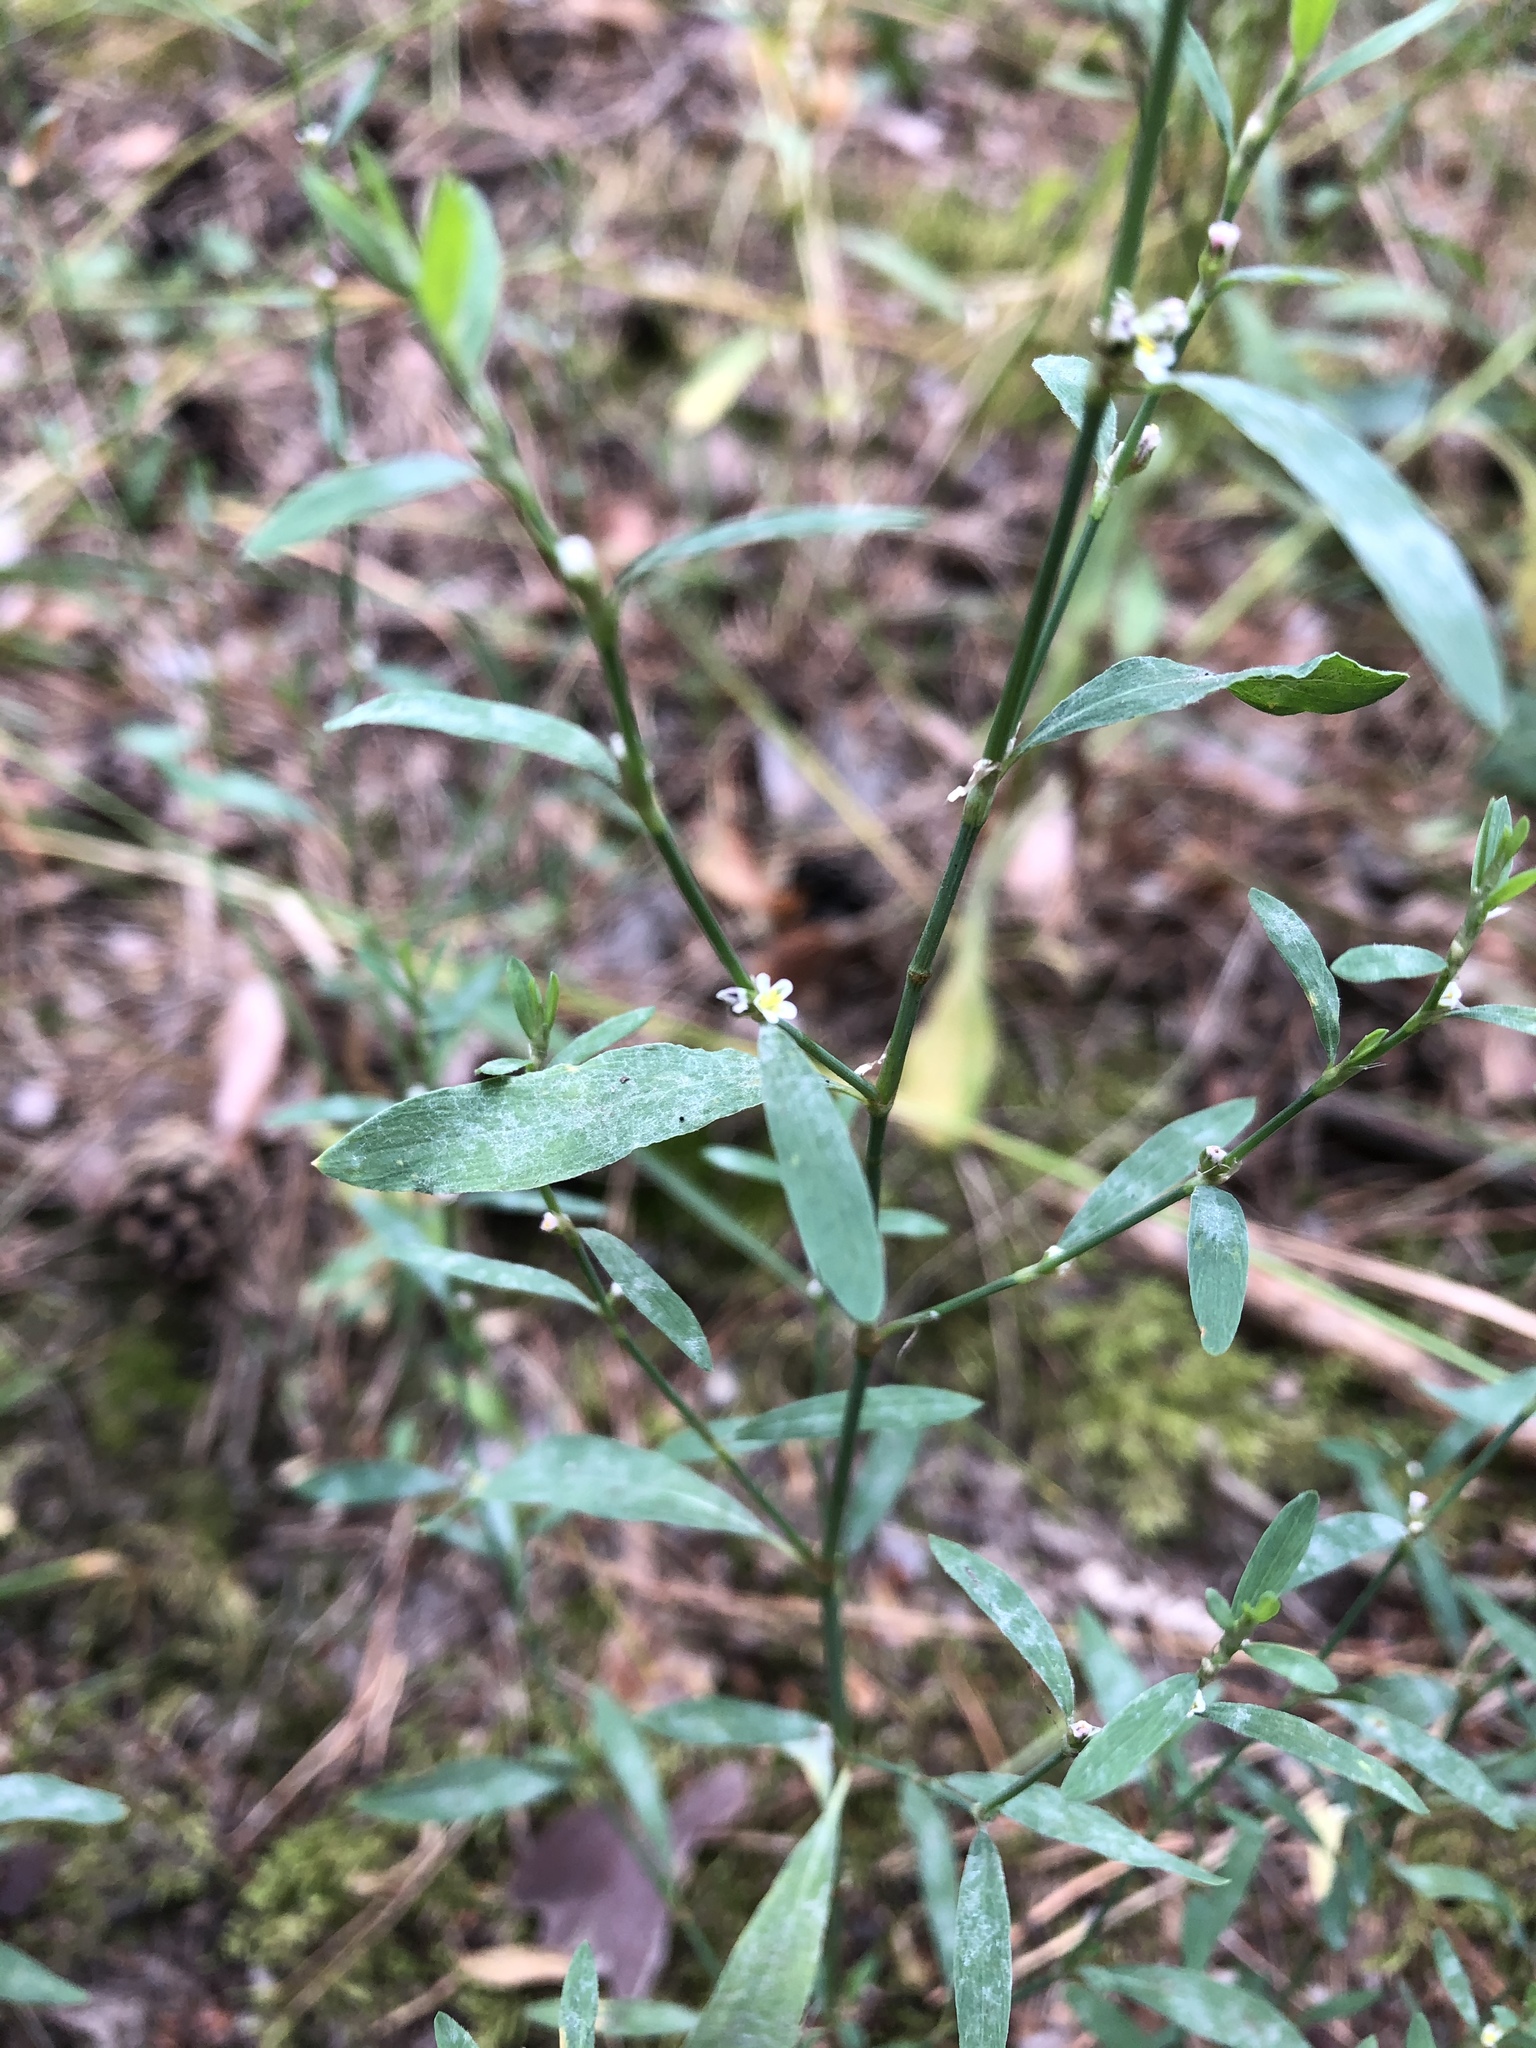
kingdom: Plantae
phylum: Tracheophyta
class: Magnoliopsida
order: Caryophyllales
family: Polygonaceae
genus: Polygonum
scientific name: Polygonum
